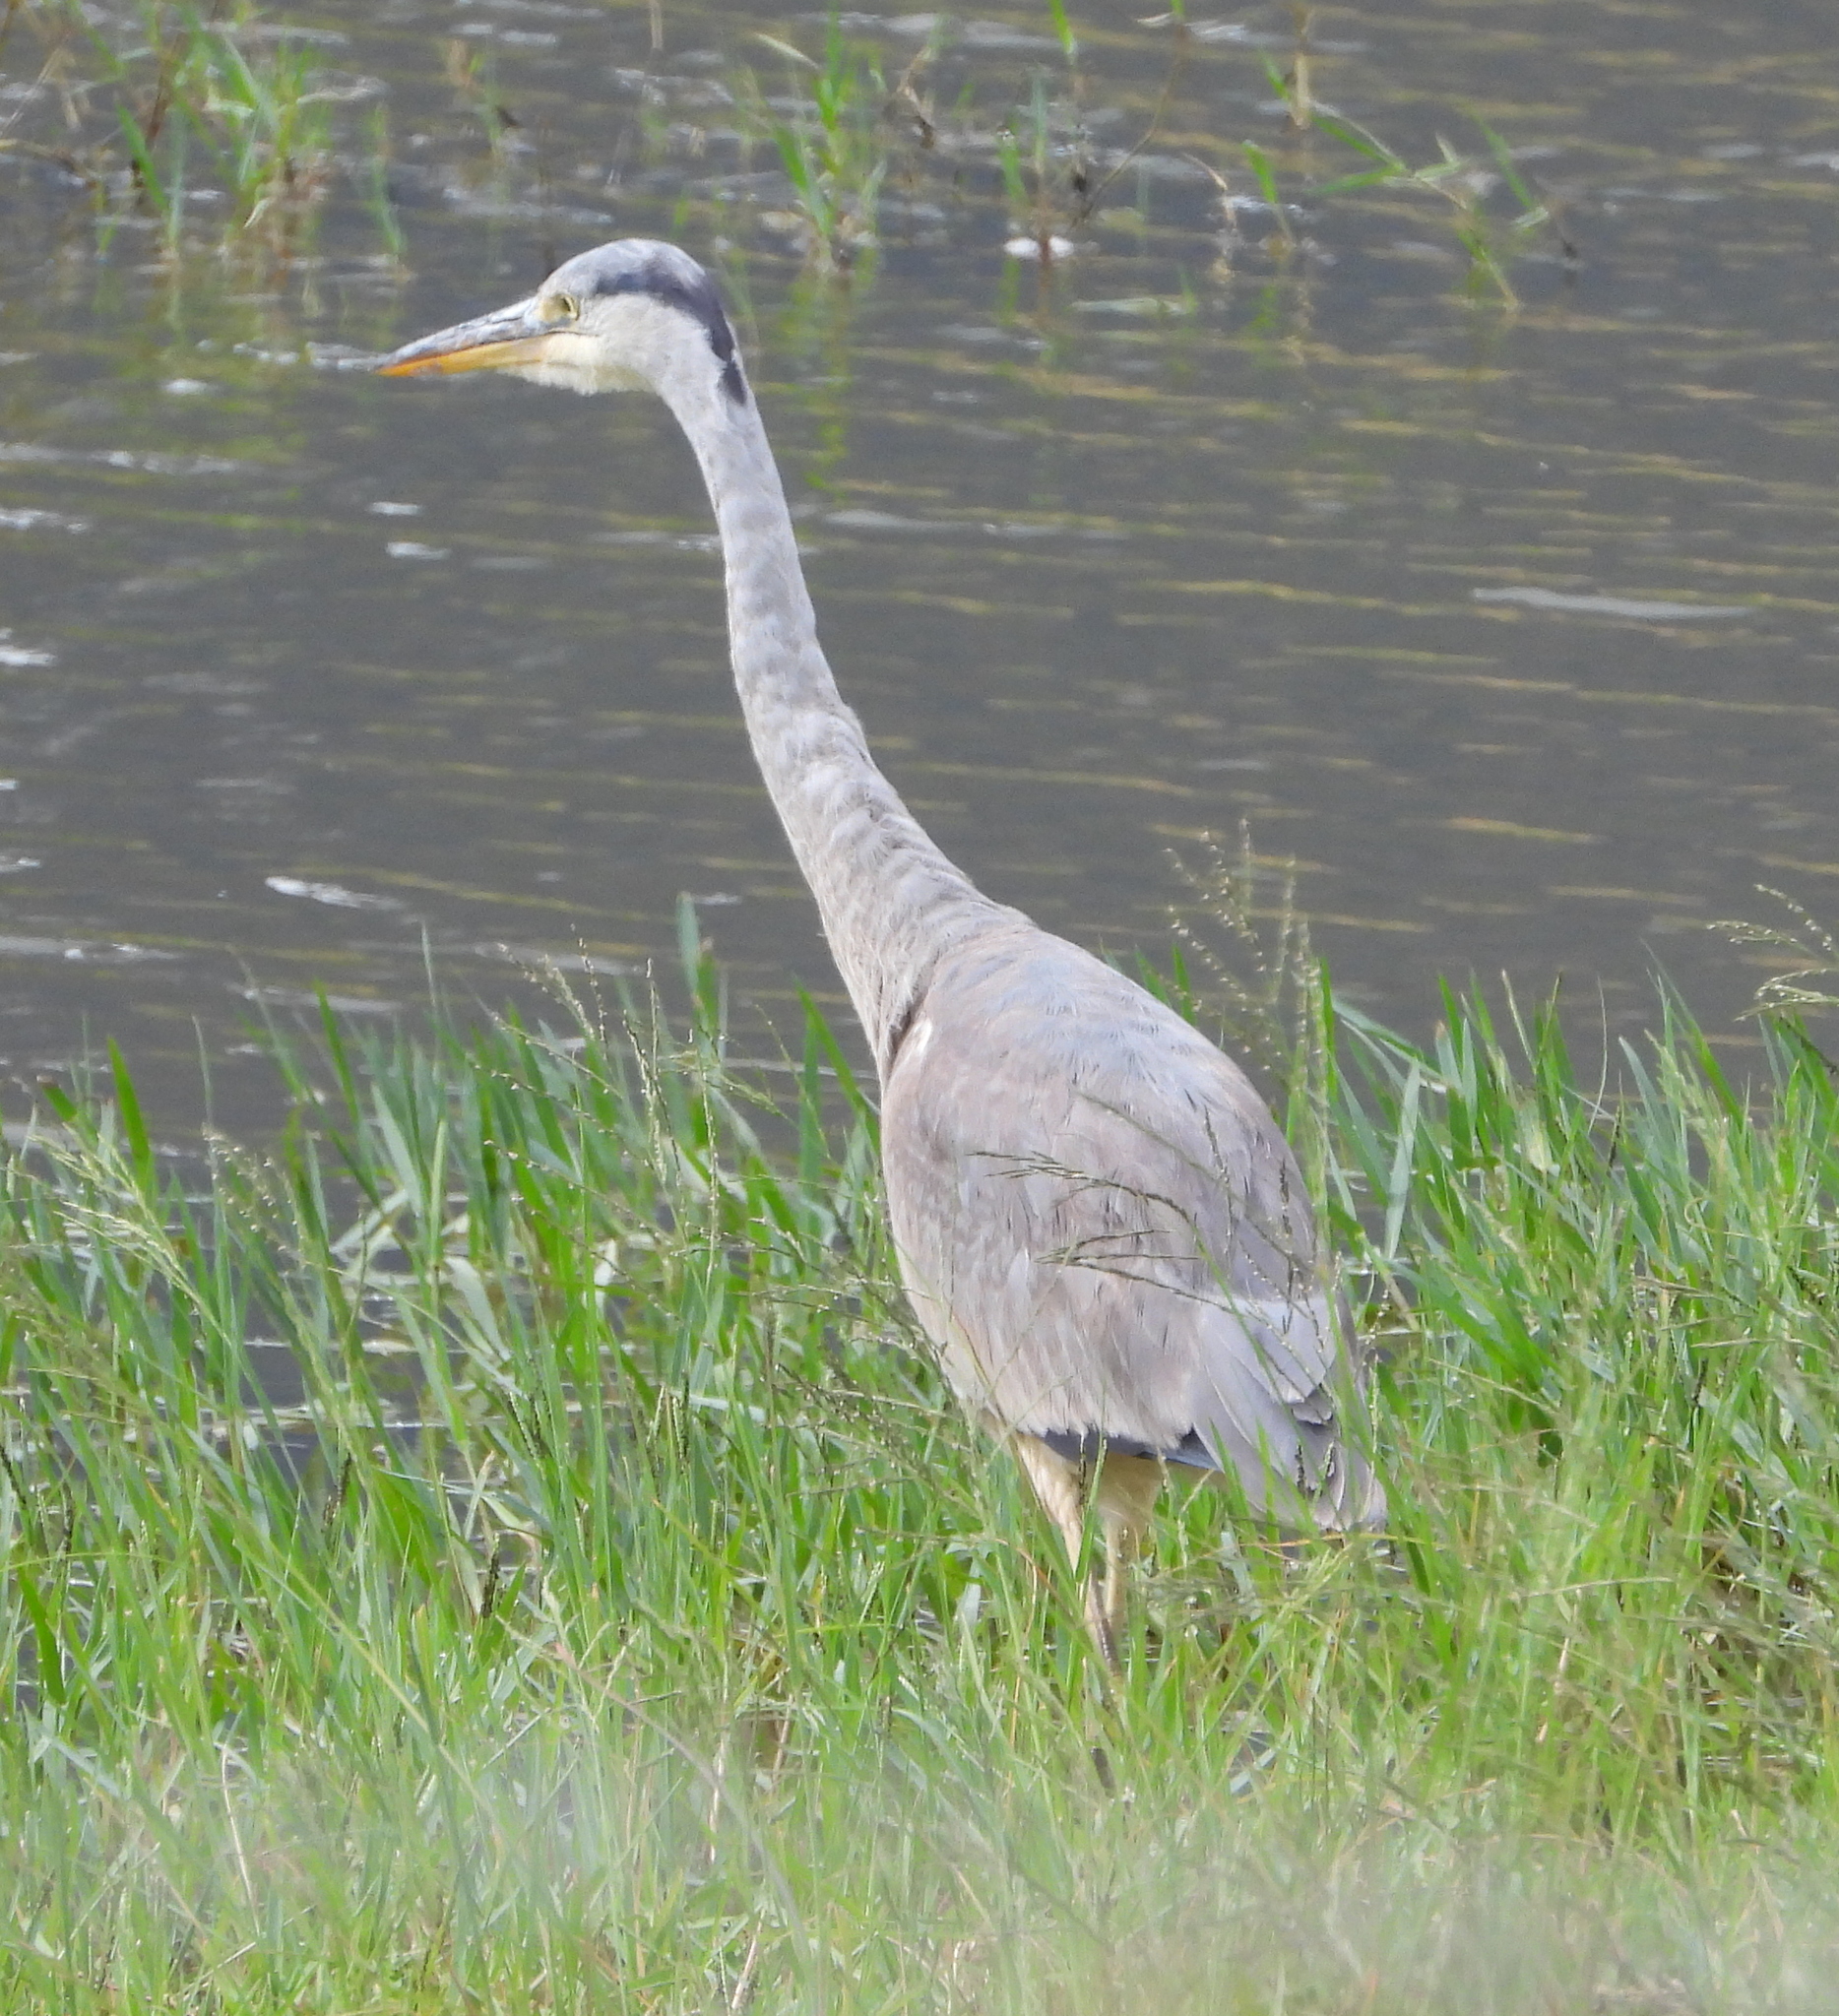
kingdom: Animalia
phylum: Chordata
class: Aves
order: Pelecaniformes
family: Ardeidae
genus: Ardea
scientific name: Ardea cinerea
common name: Grey heron
